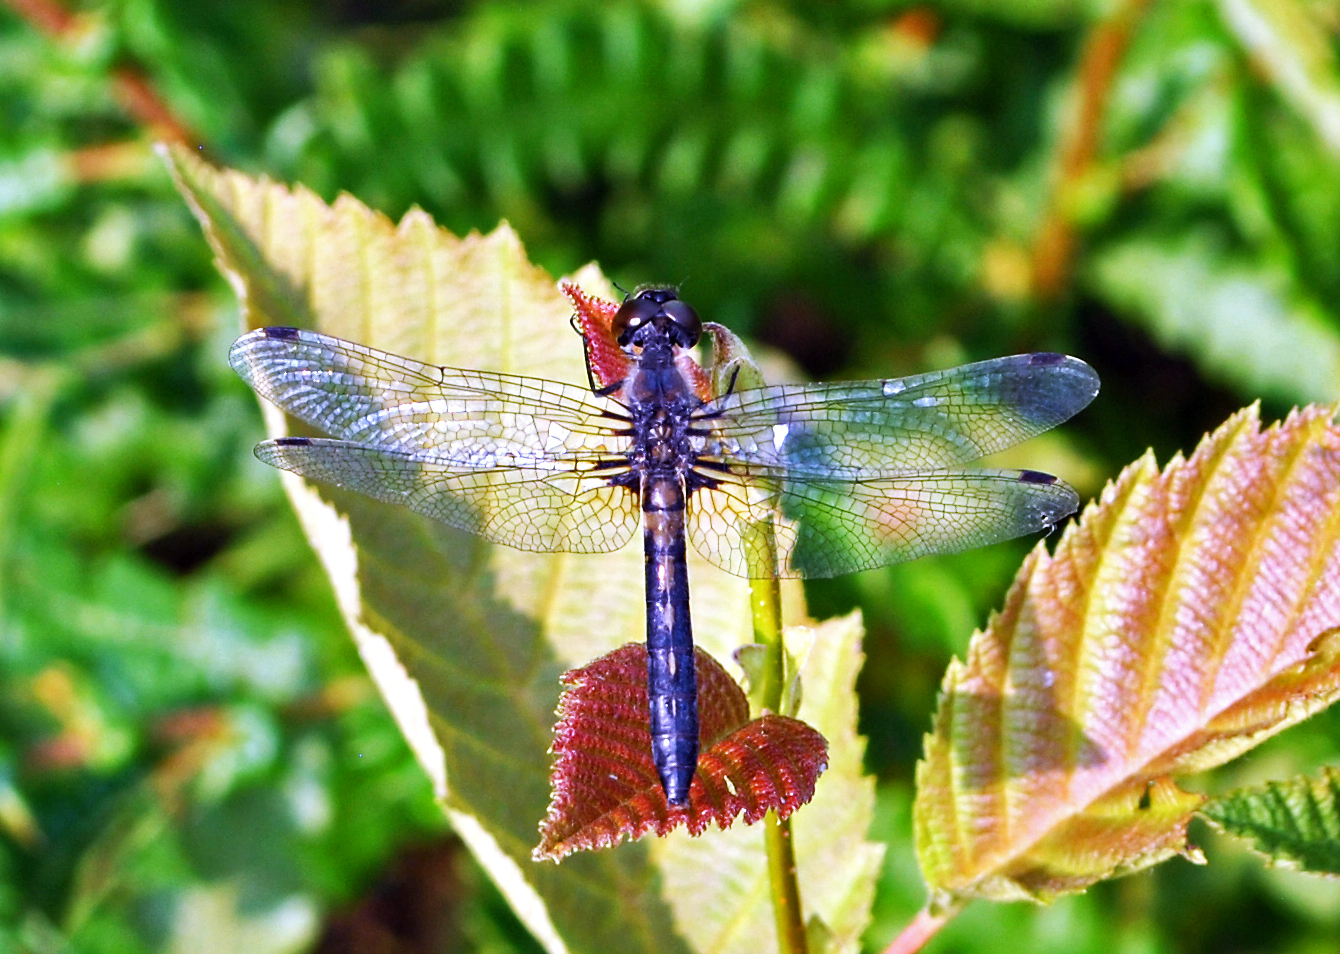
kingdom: Animalia
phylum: Arthropoda
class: Insecta
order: Odonata
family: Libellulidae
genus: Leucorrhinia
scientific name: Leucorrhinia frigida
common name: Frosted whiteface
